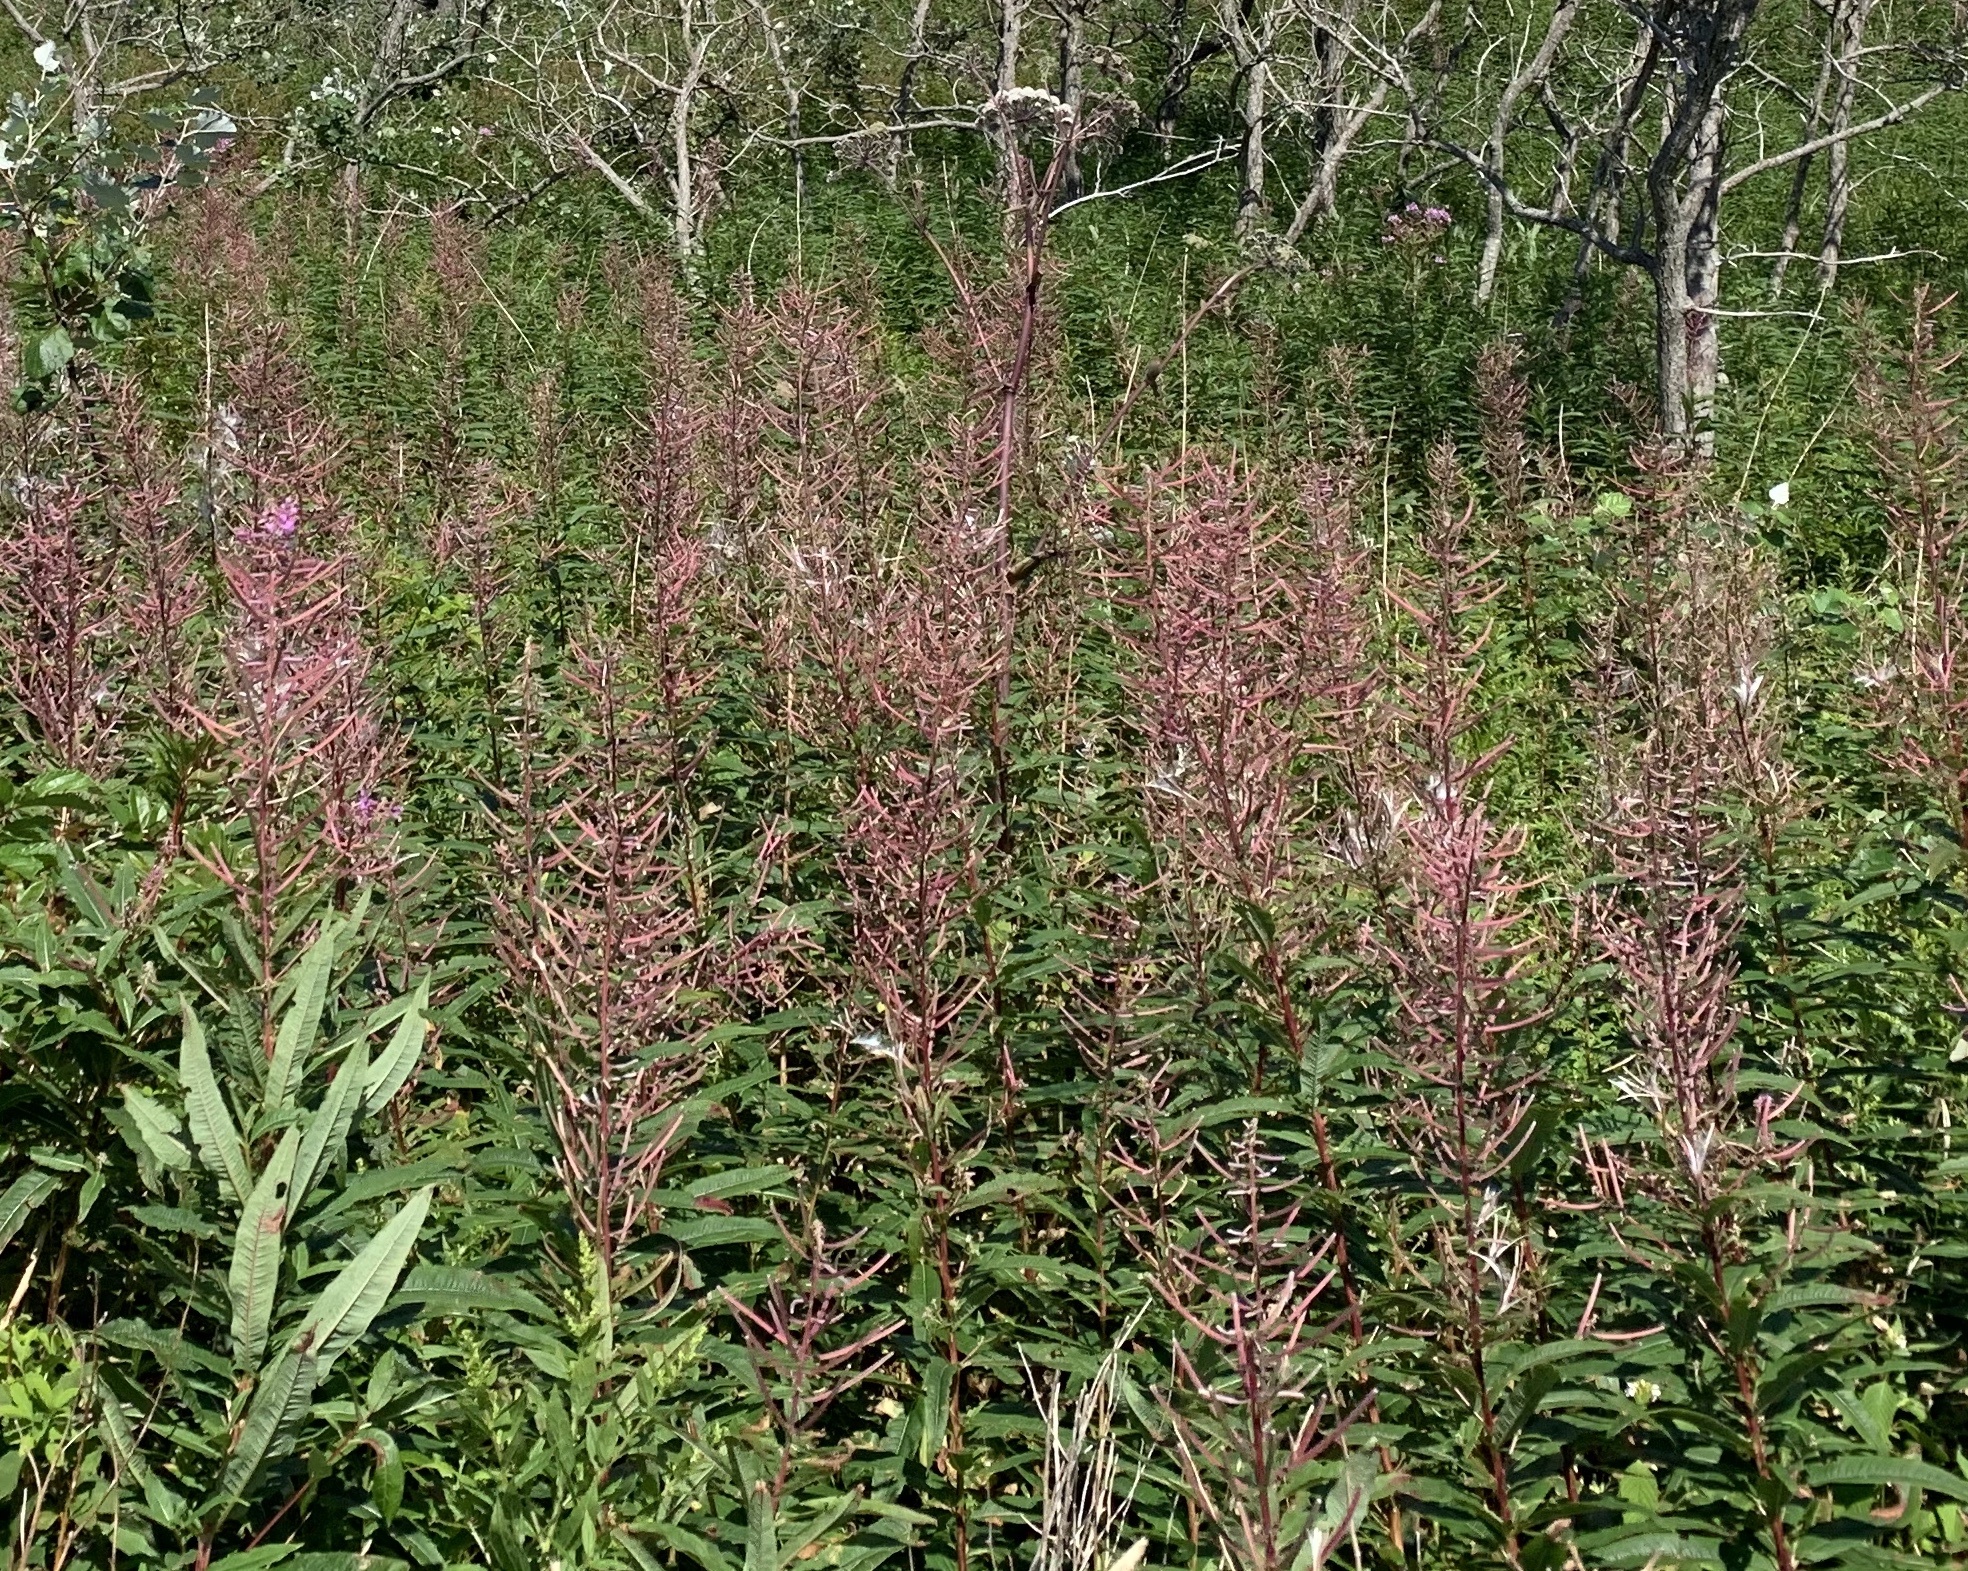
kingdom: Plantae
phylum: Tracheophyta
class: Magnoliopsida
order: Myrtales
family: Onagraceae
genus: Chamaenerion
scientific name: Chamaenerion angustifolium
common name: Fireweed
